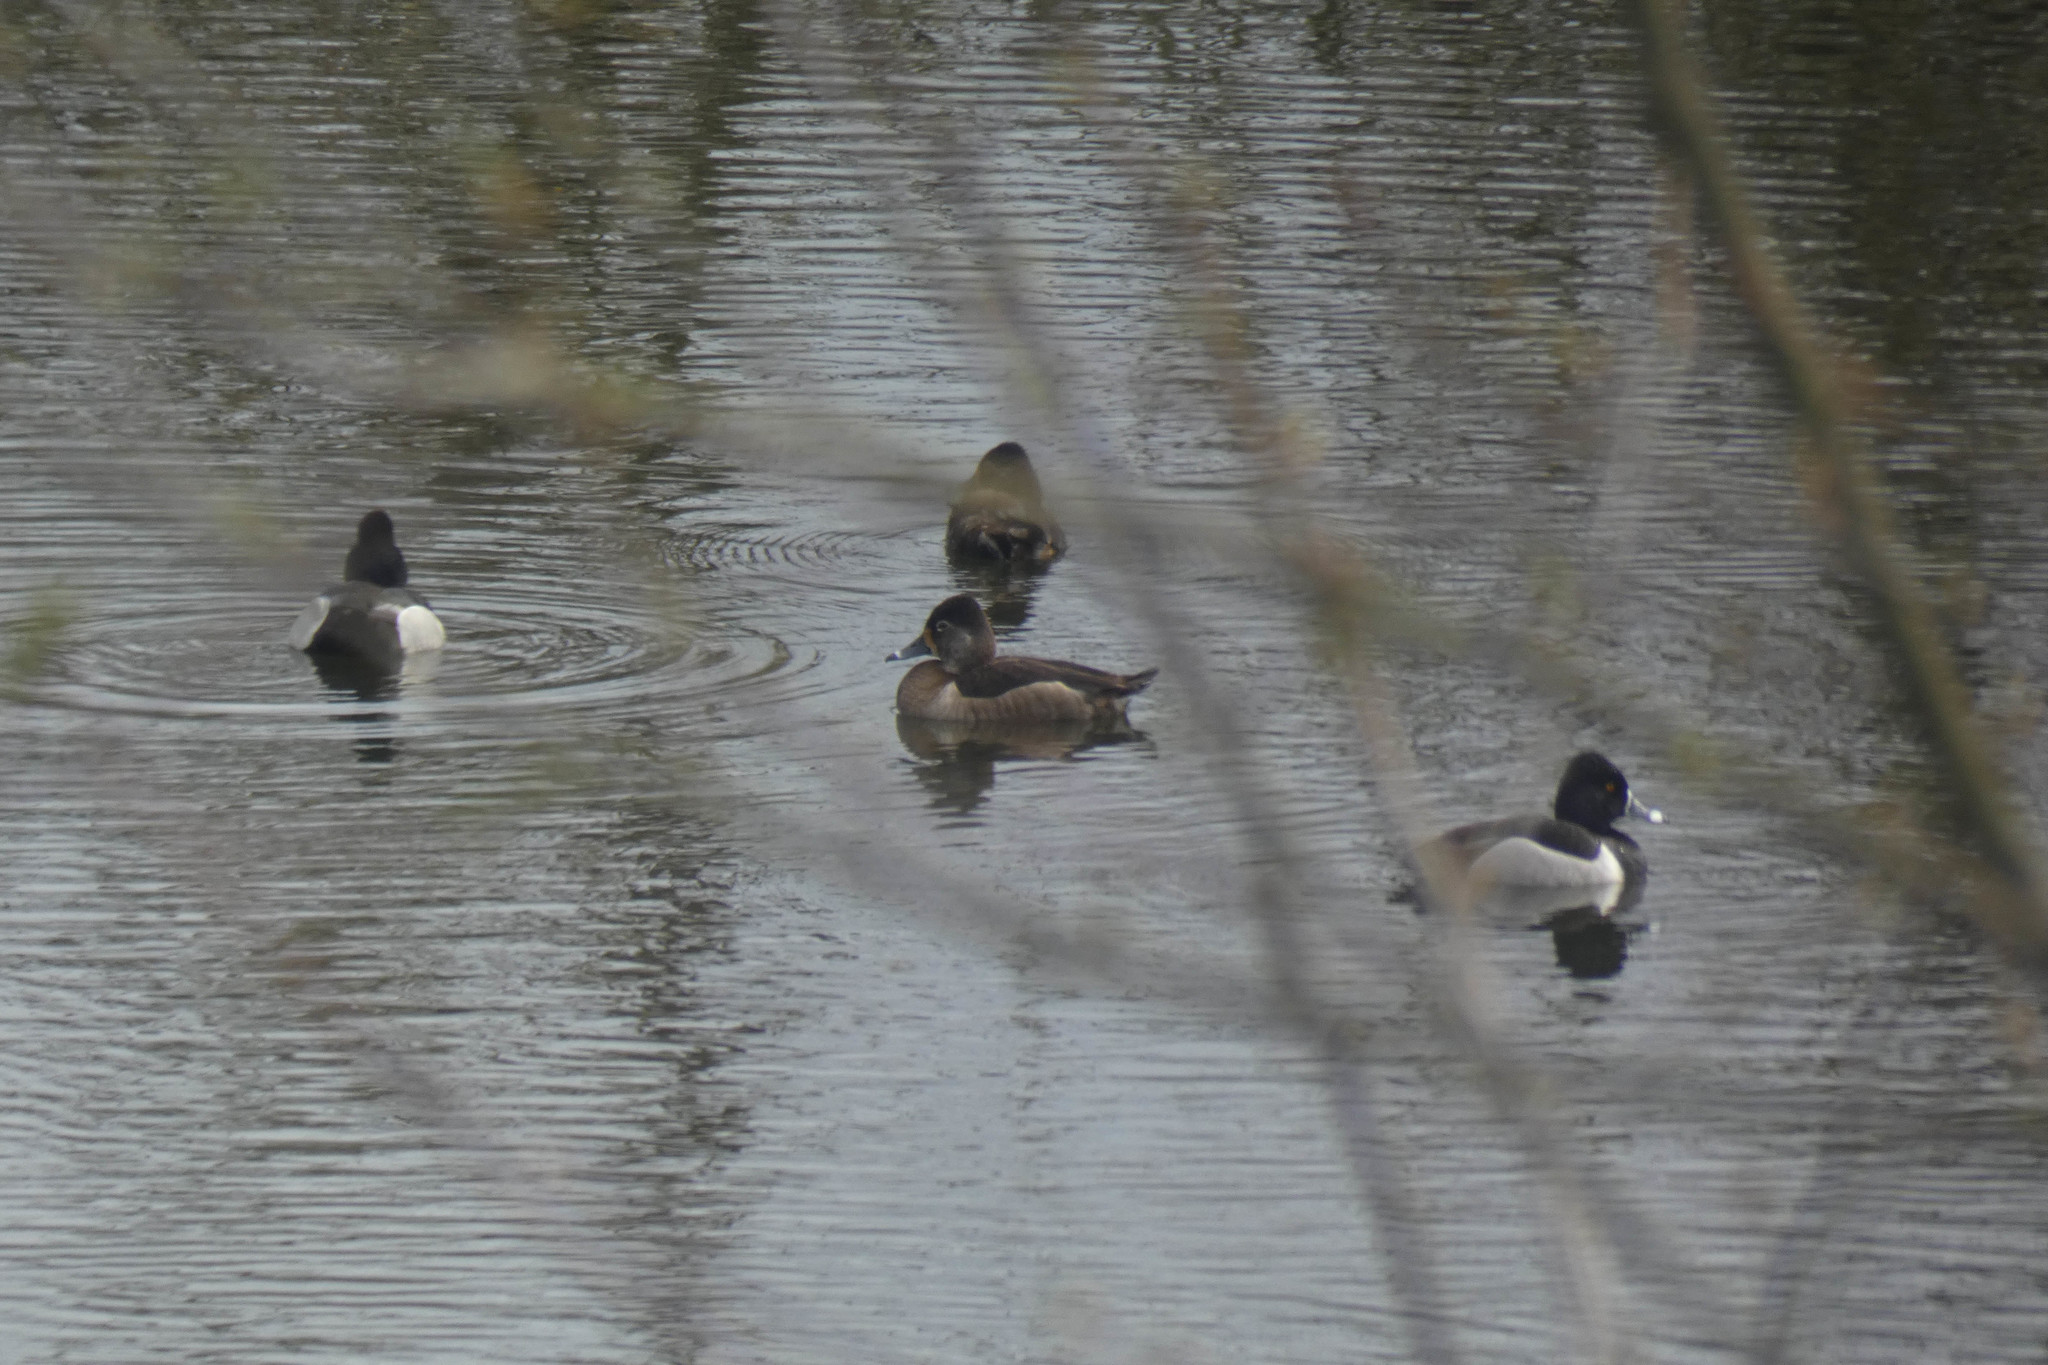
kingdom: Animalia
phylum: Chordata
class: Aves
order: Anseriformes
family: Anatidae
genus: Aythya
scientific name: Aythya collaris
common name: Ring-necked duck
